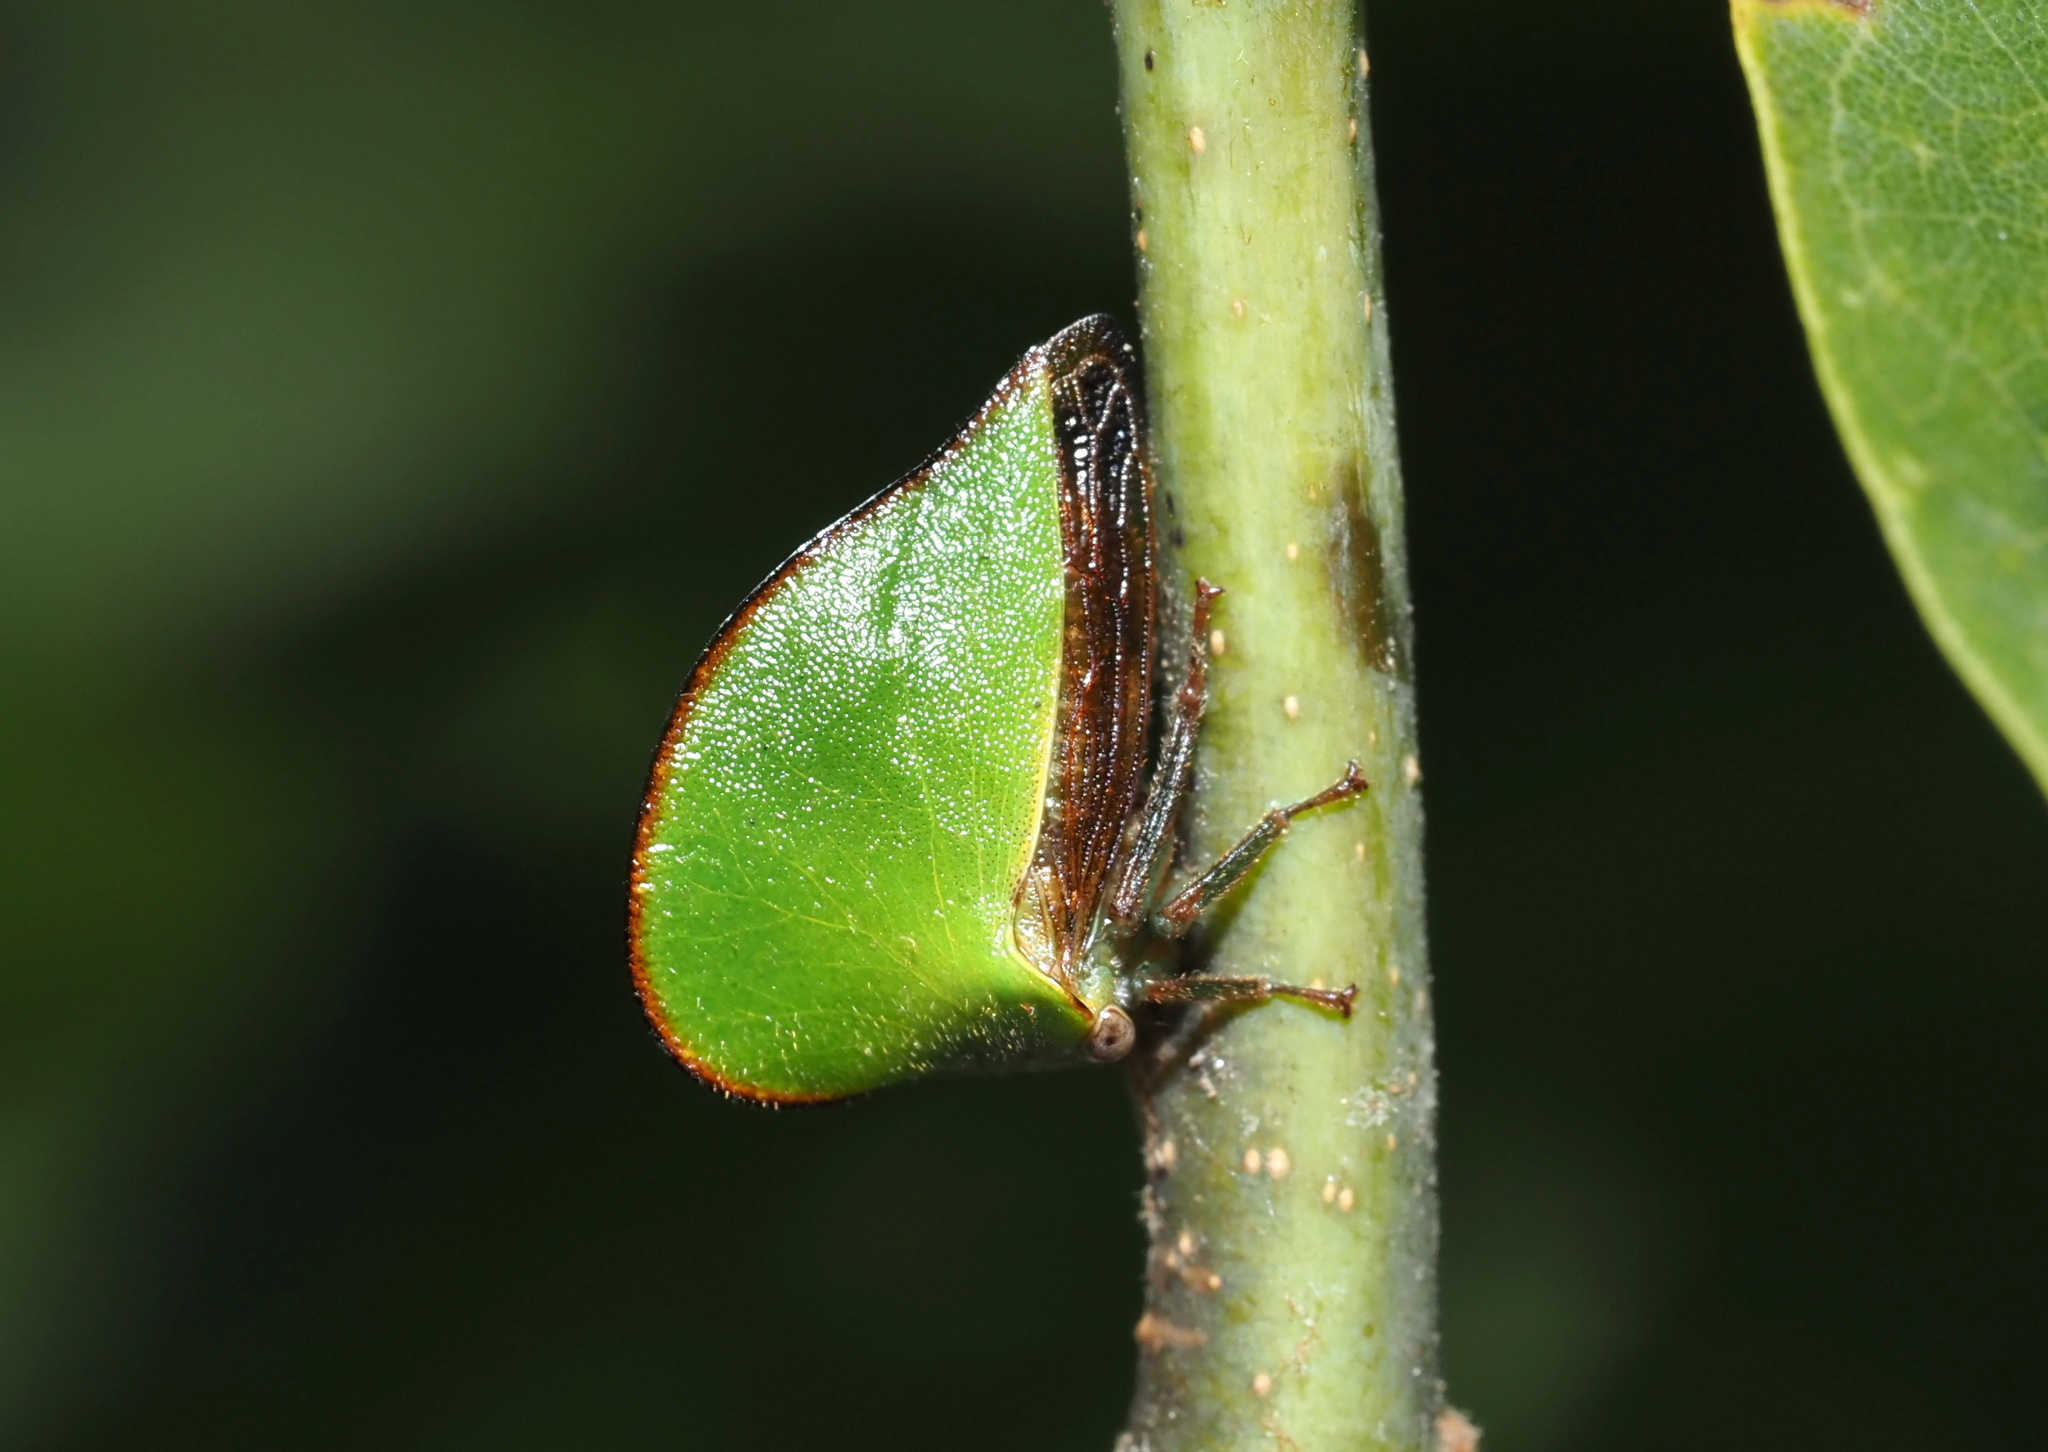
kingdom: Animalia
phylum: Arthropoda
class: Insecta
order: Hemiptera
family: Membracidae
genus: Archasia
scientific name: Archasia belfragei
